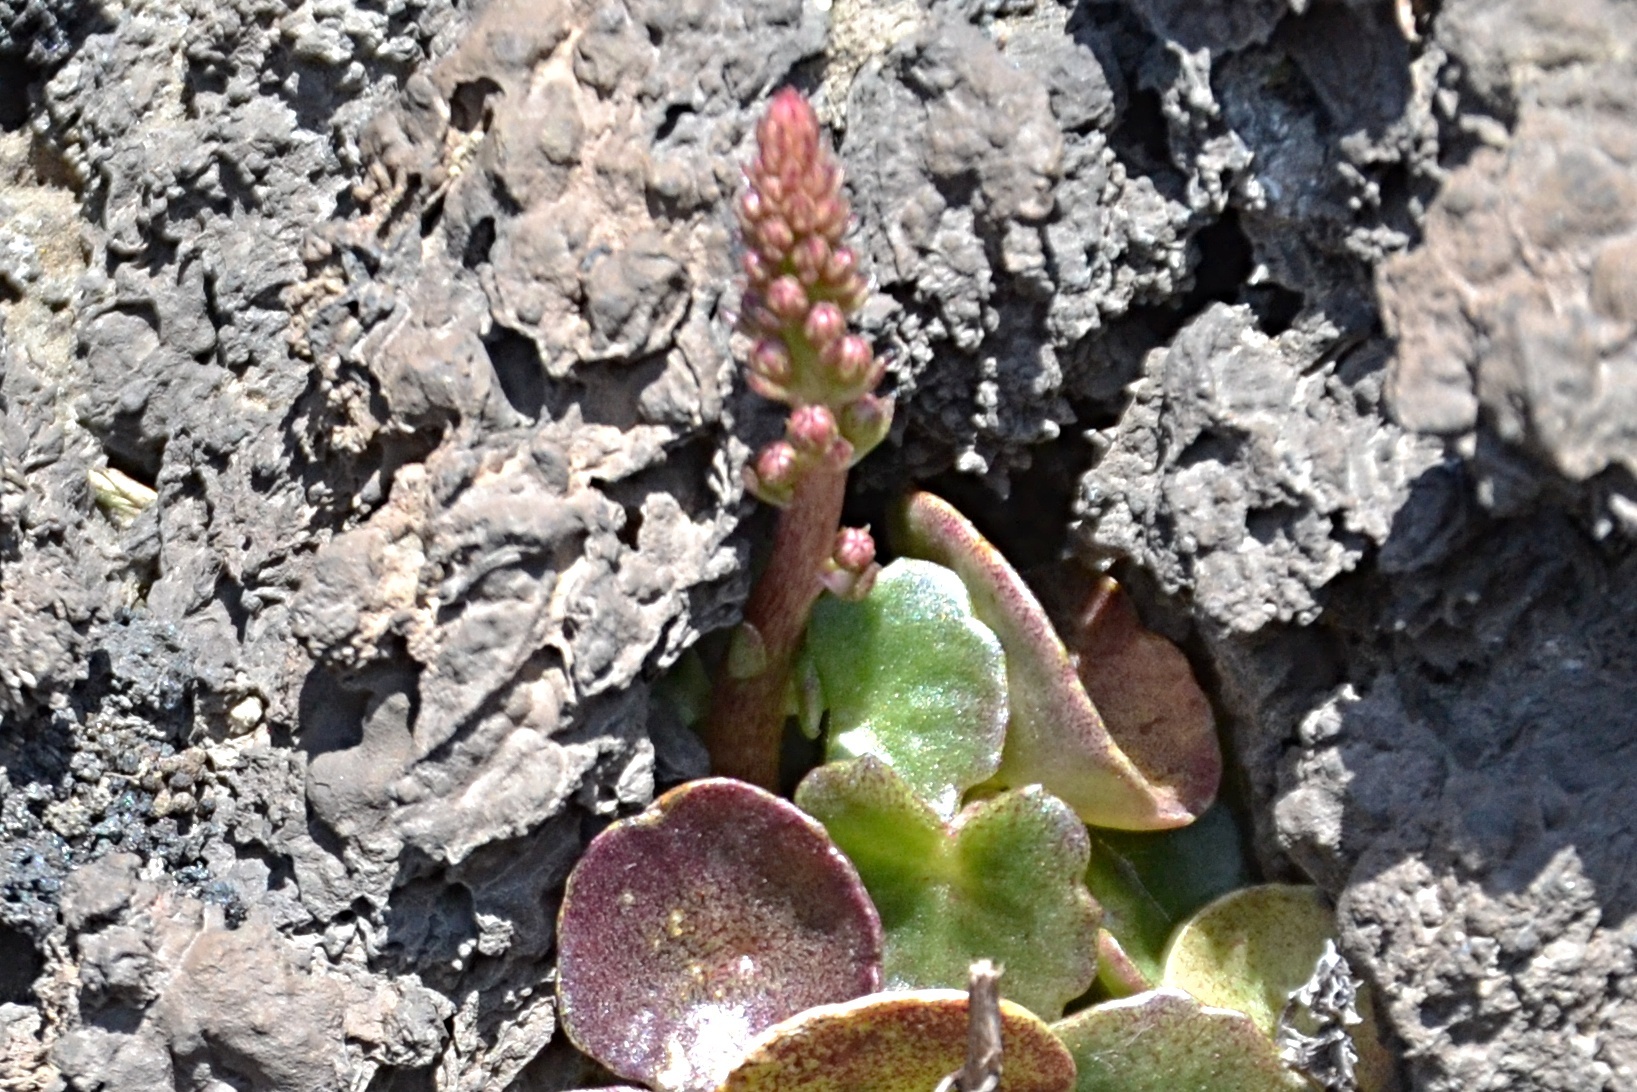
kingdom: Plantae
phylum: Tracheophyta
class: Magnoliopsida
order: Saxifragales
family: Crassulaceae
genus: Umbilicus
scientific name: Umbilicus rupestris
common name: Navelwort
